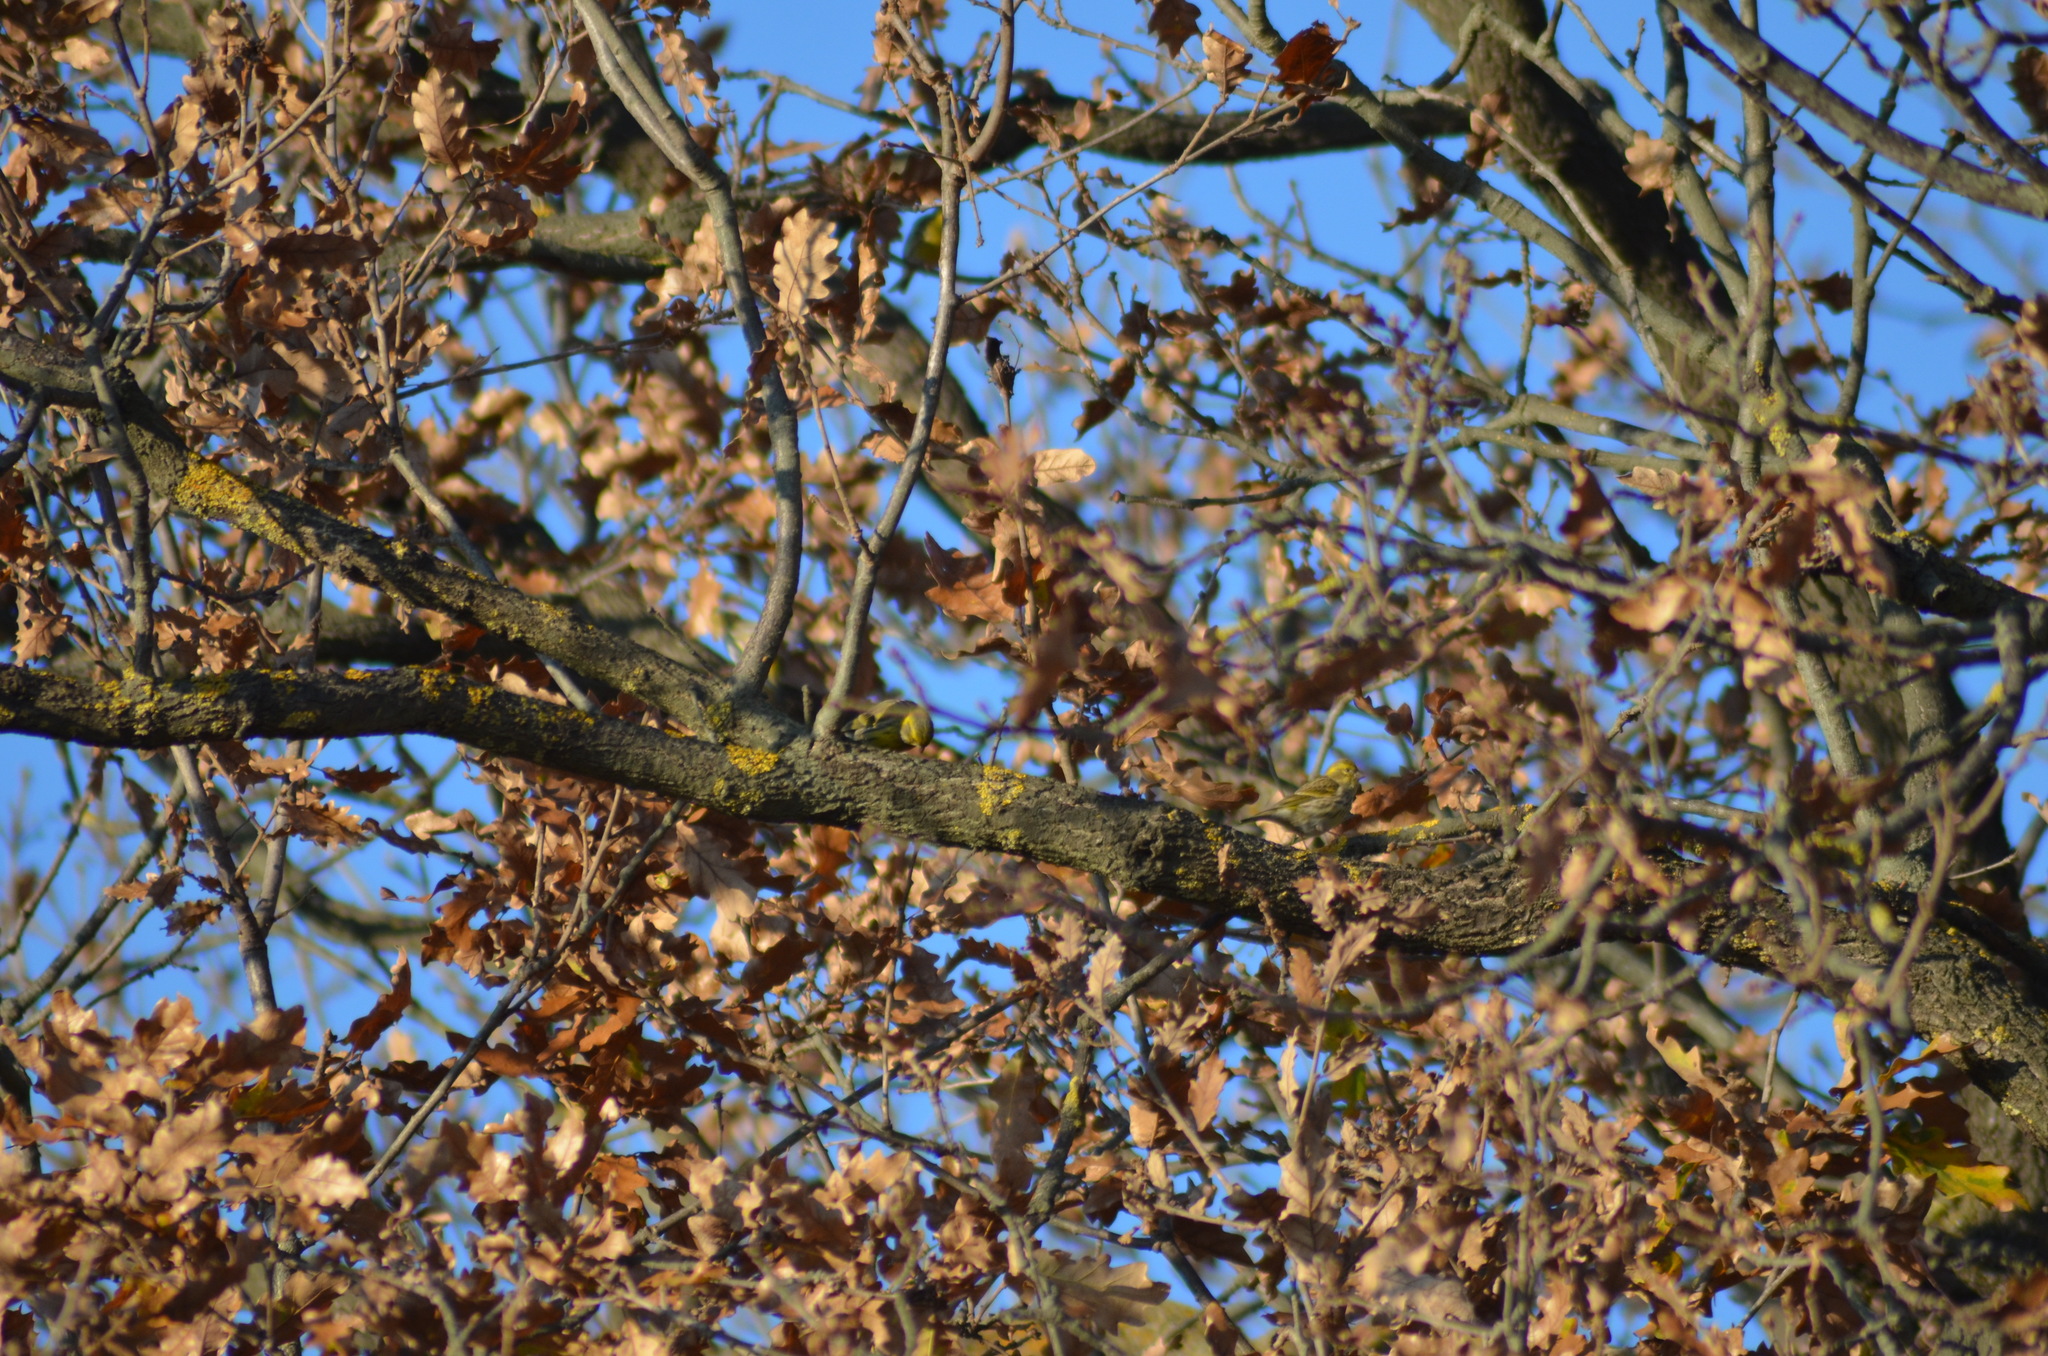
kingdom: Animalia
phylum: Chordata
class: Aves
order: Passeriformes
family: Fringillidae
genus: Serinus
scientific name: Serinus serinus
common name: European serin
